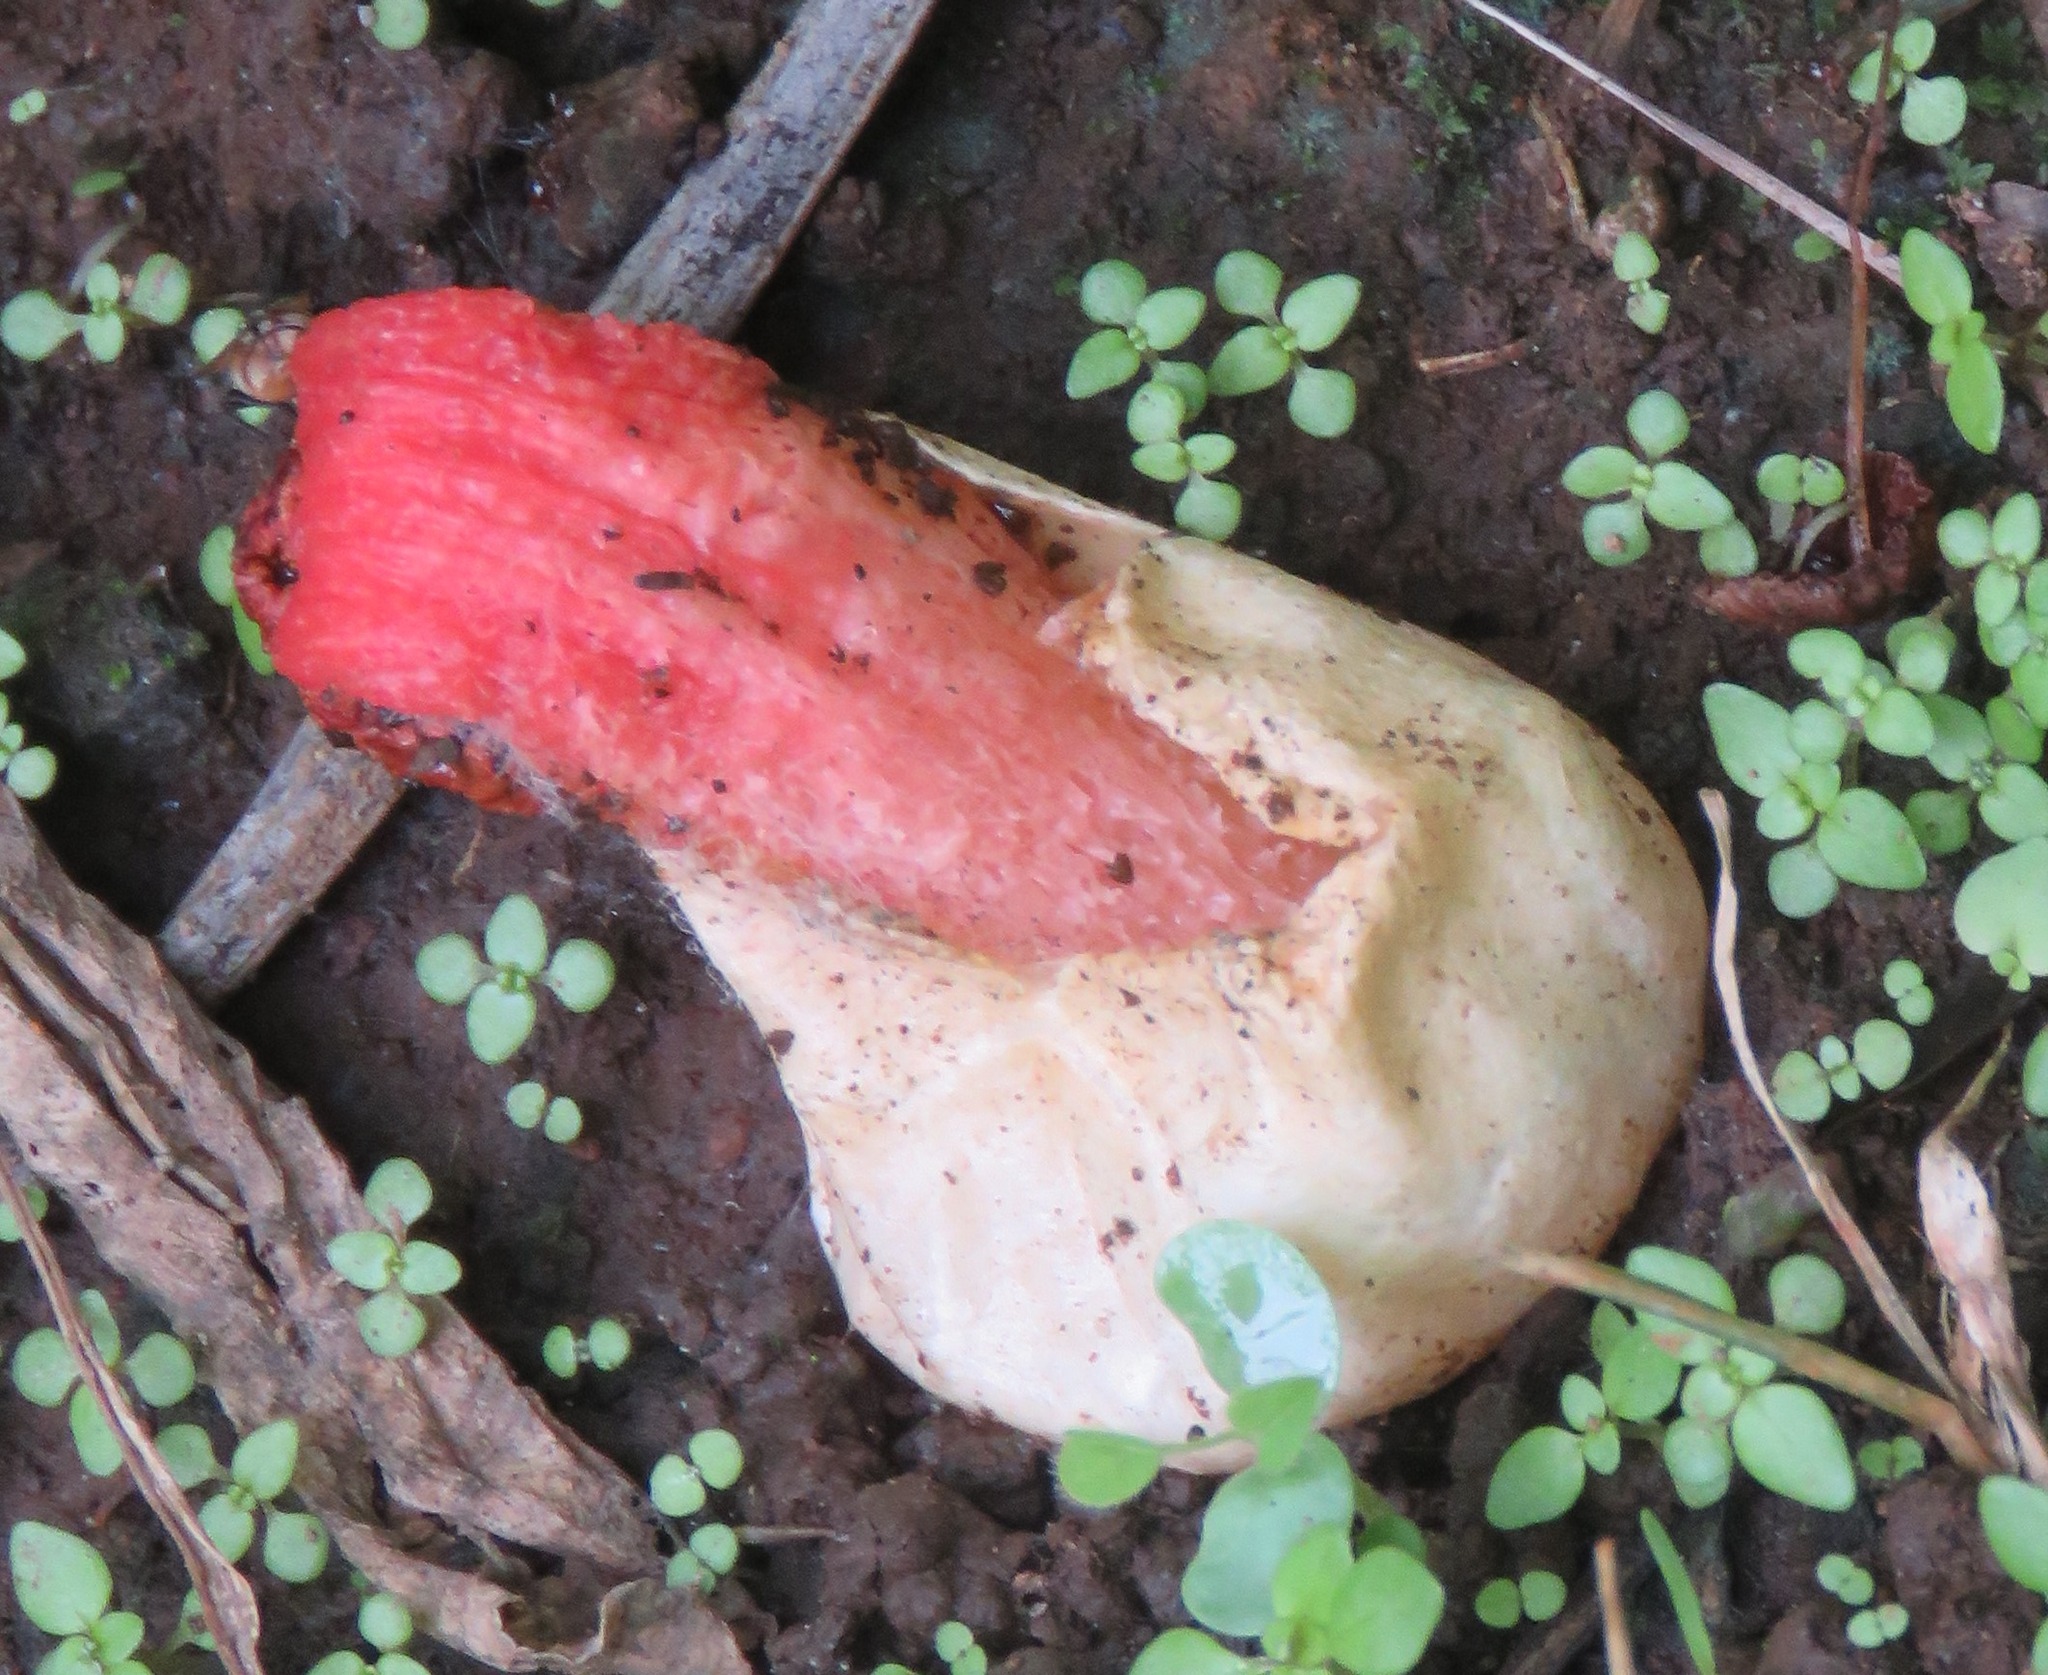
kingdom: Fungi
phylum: Basidiomycota
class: Agaricomycetes
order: Phallales
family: Phallaceae
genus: Lysurus
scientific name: Lysurus periphragmoides
